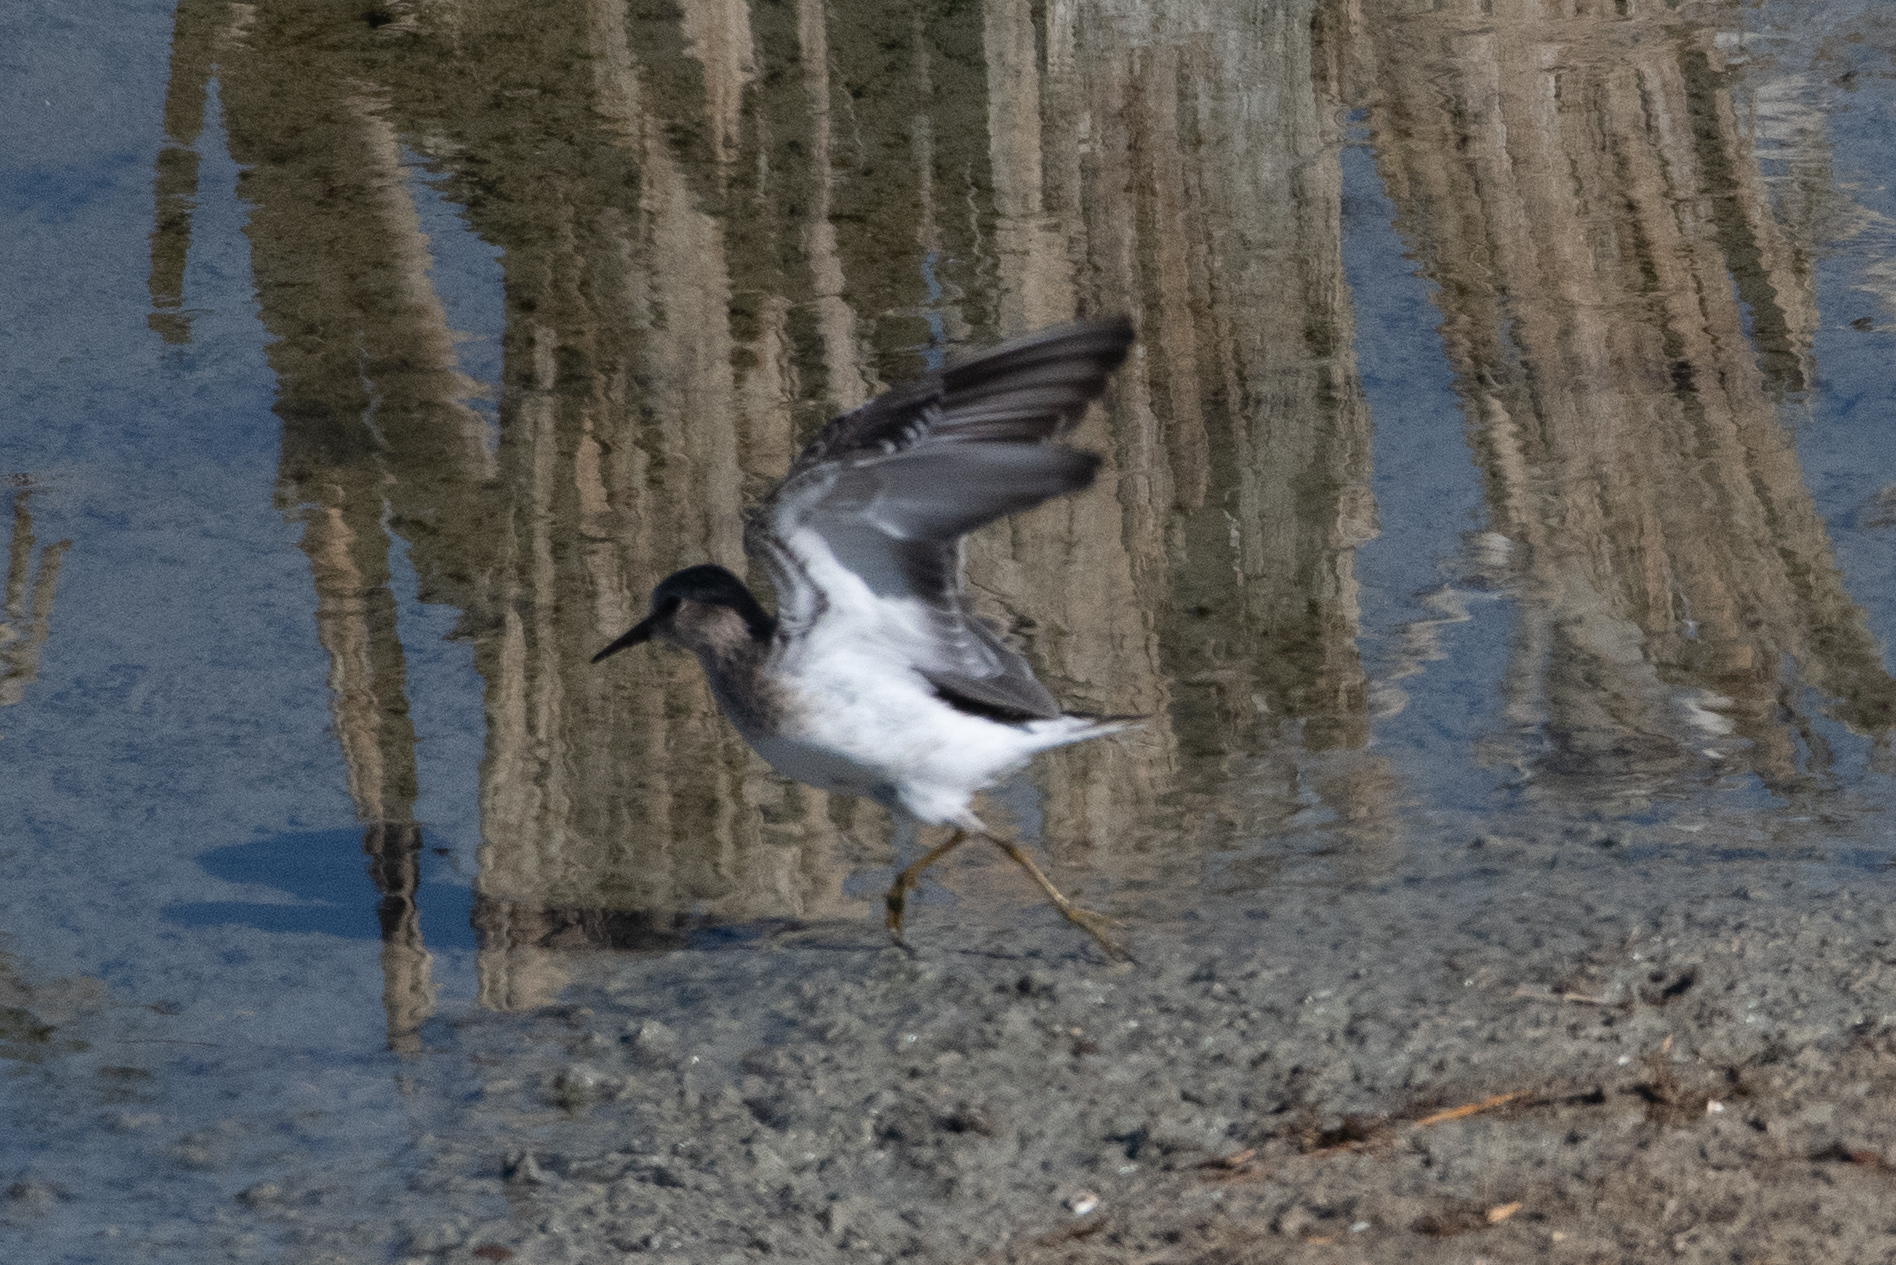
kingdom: Animalia
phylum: Chordata
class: Aves
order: Charadriiformes
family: Scolopacidae
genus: Calidris
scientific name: Calidris minutilla
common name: Least sandpiper
